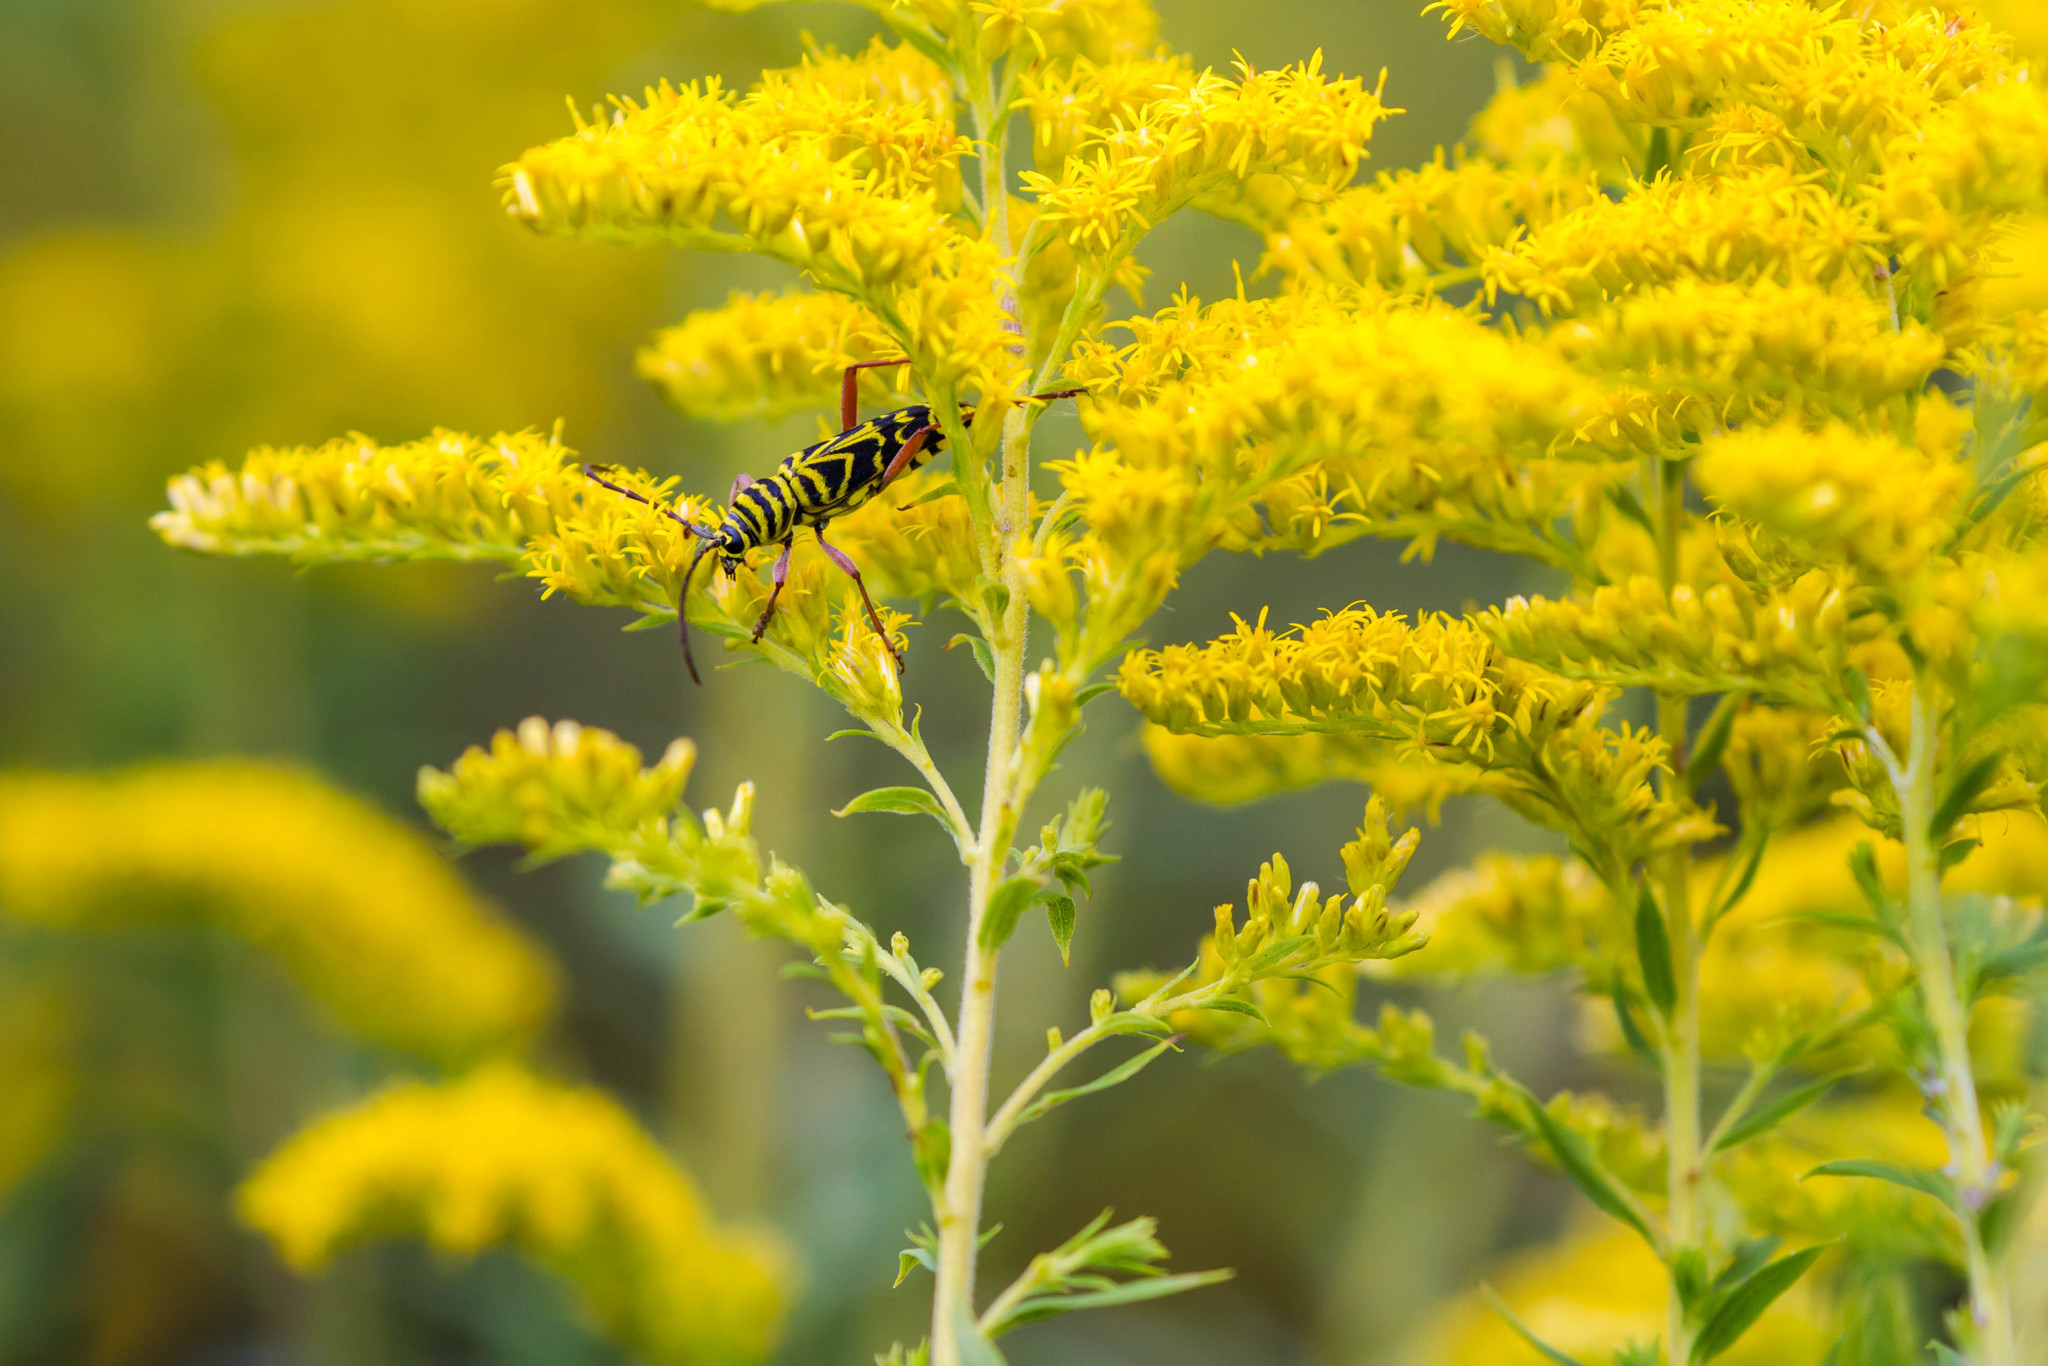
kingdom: Animalia
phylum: Arthropoda
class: Insecta
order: Coleoptera
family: Cerambycidae
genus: Megacyllene
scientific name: Megacyllene robiniae
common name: Locust borer
